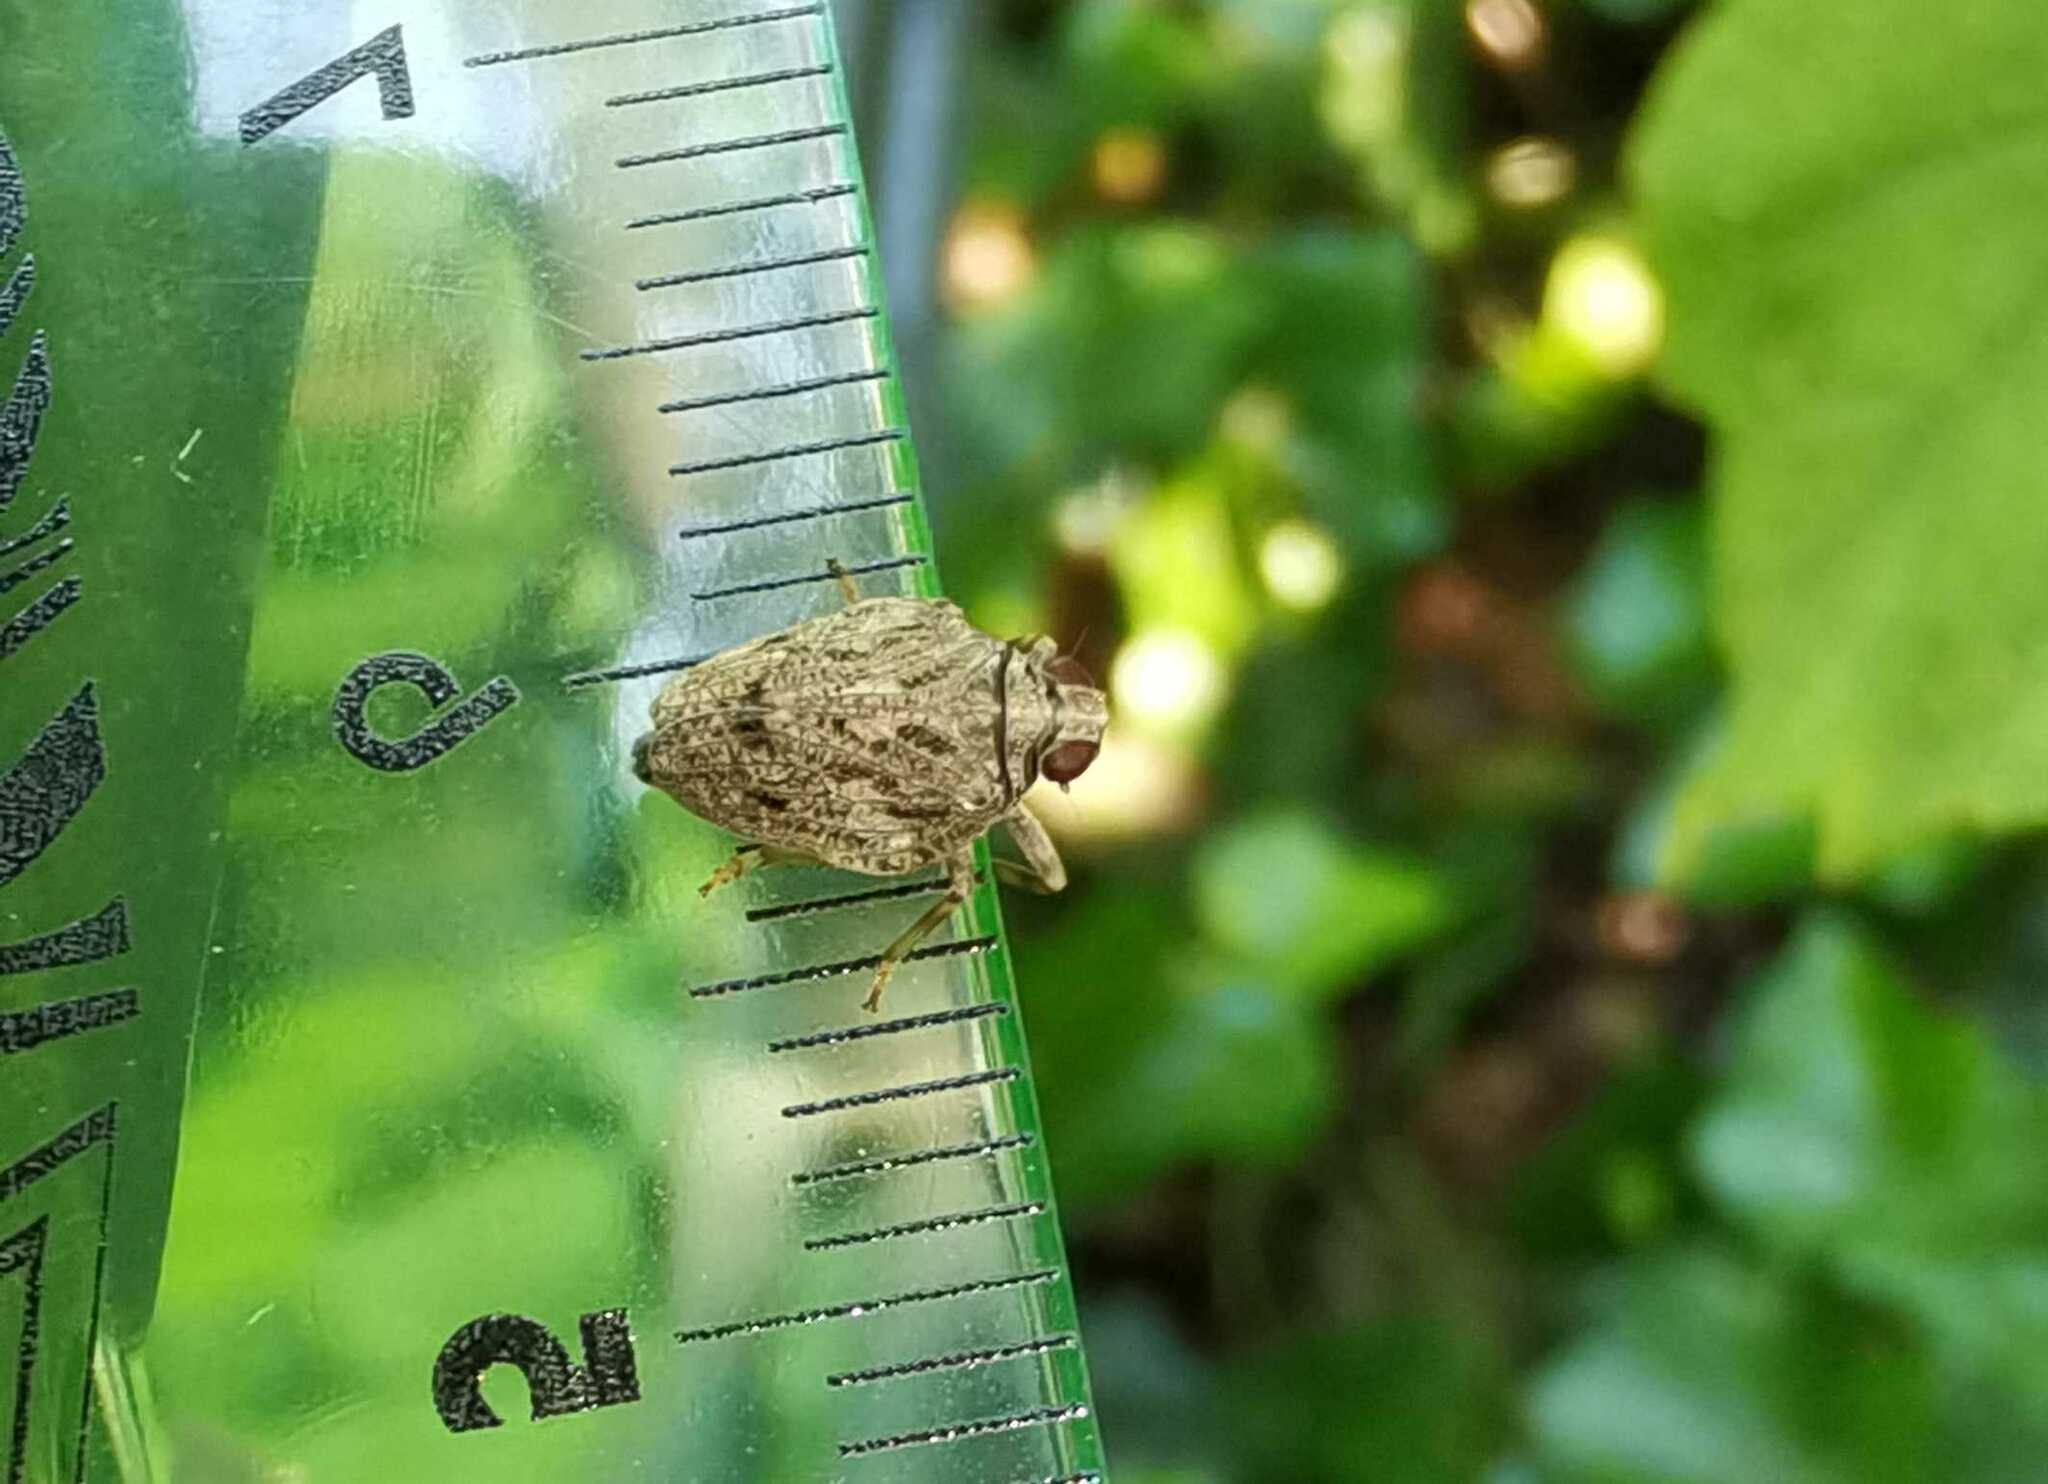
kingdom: Animalia
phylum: Arthropoda
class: Insecta
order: Hemiptera
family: Issidae
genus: Issus
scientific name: Issus coleoptratus
